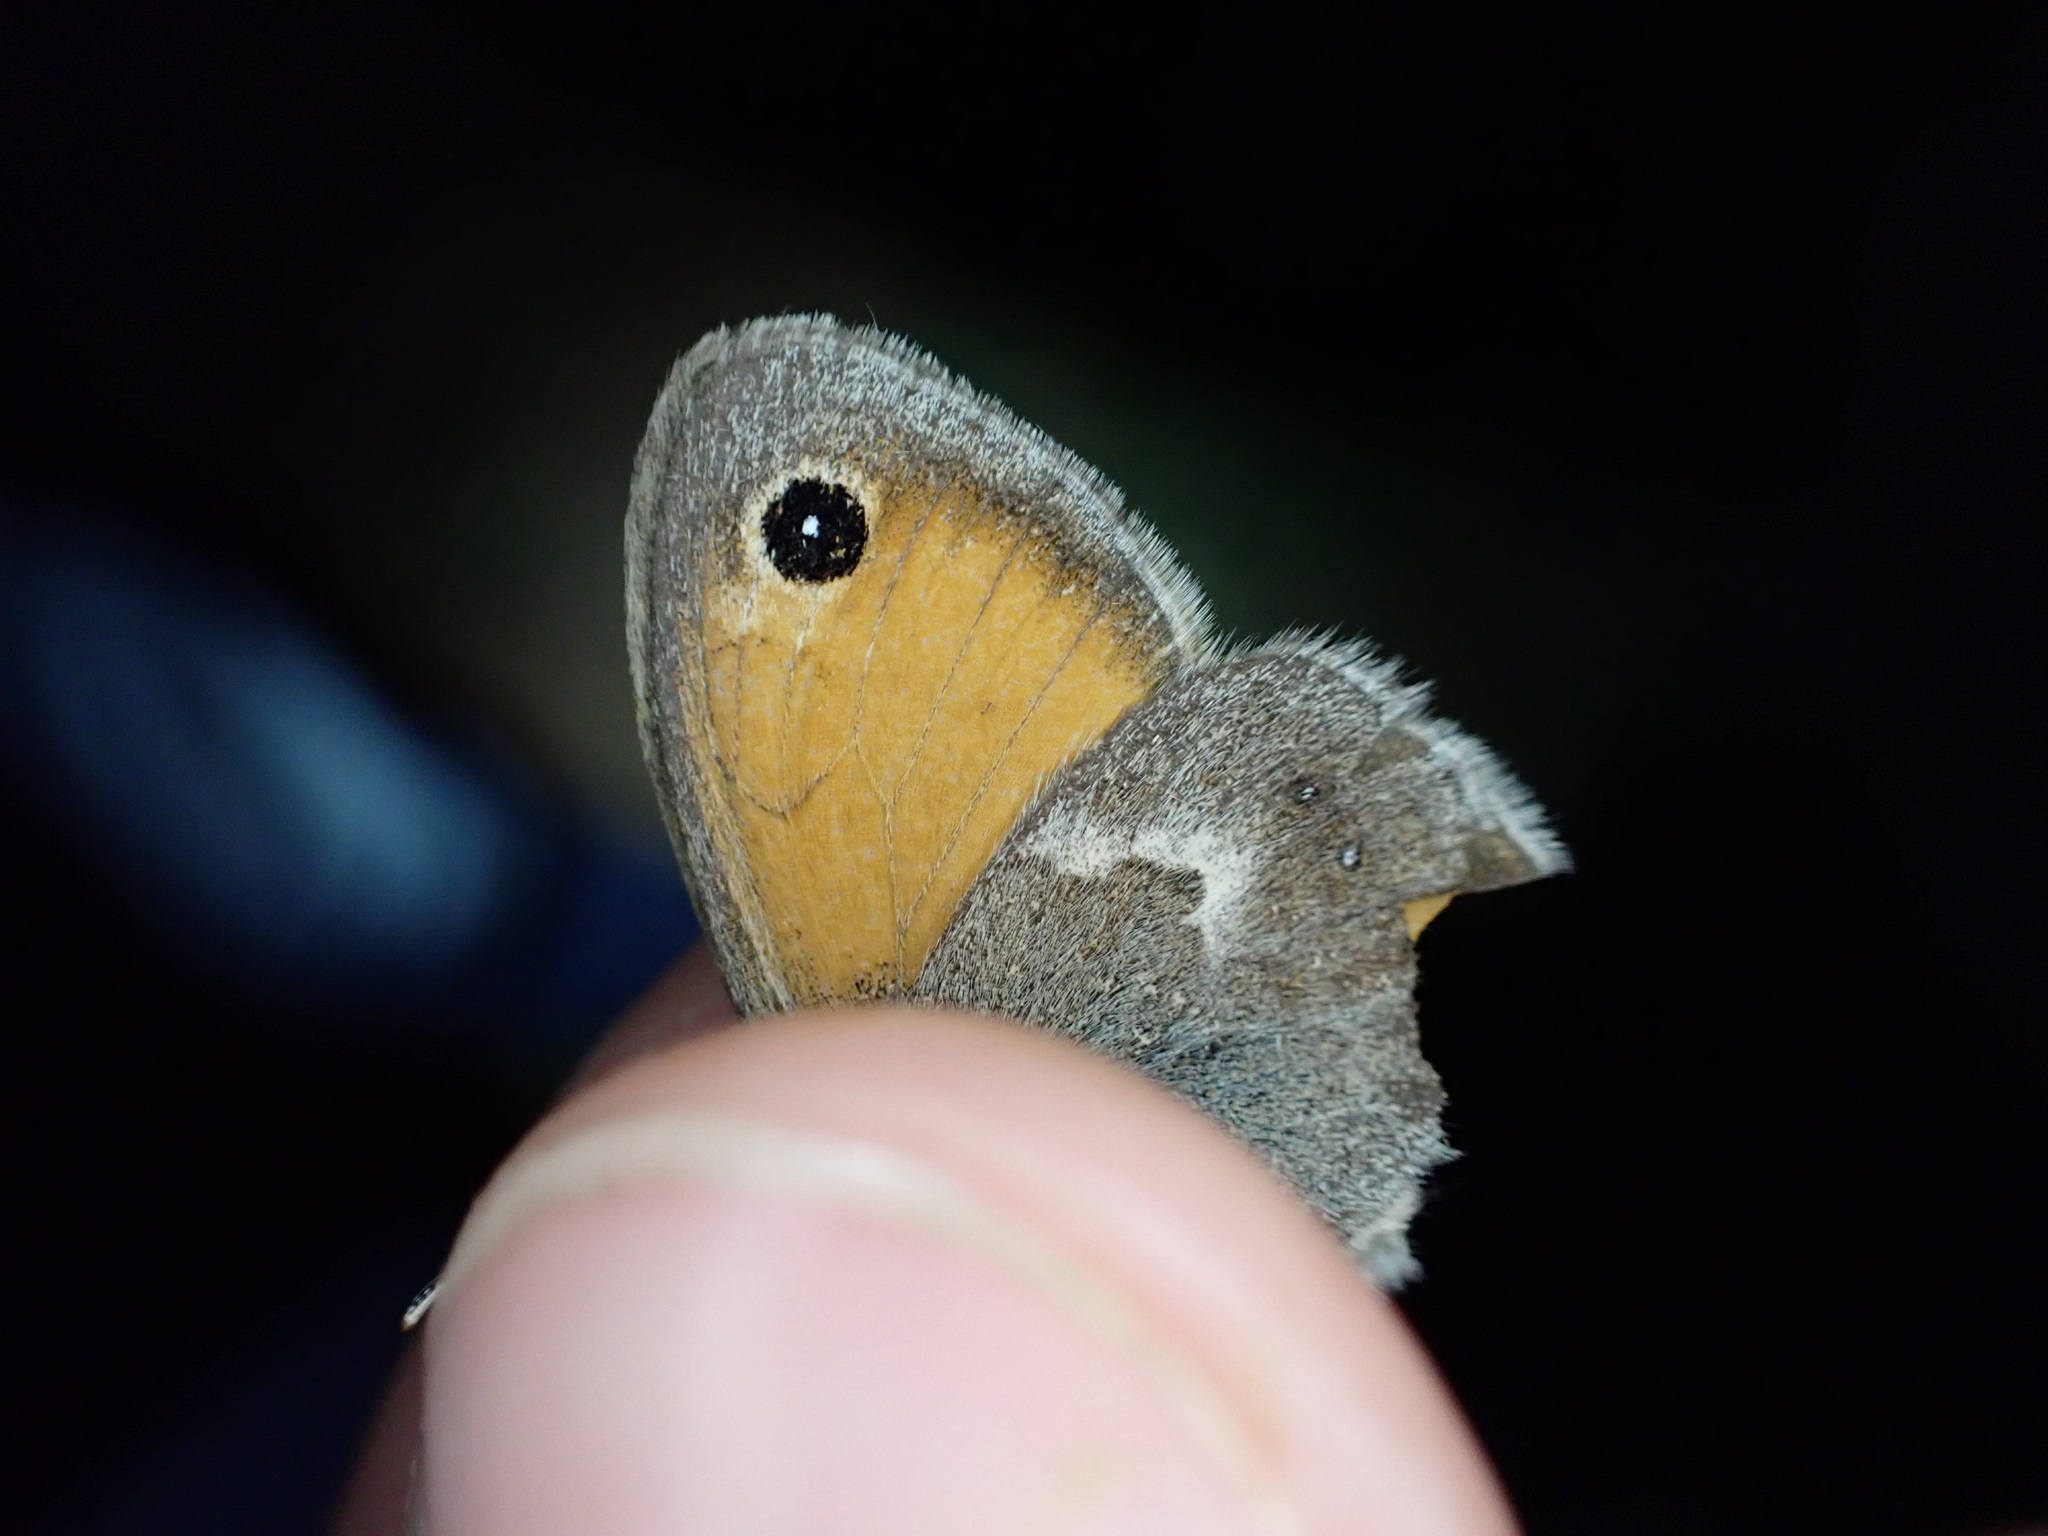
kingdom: Animalia
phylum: Arthropoda
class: Insecta
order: Lepidoptera
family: Nymphalidae
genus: Coenonympha
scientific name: Coenonympha pamphilus
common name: Small heath
